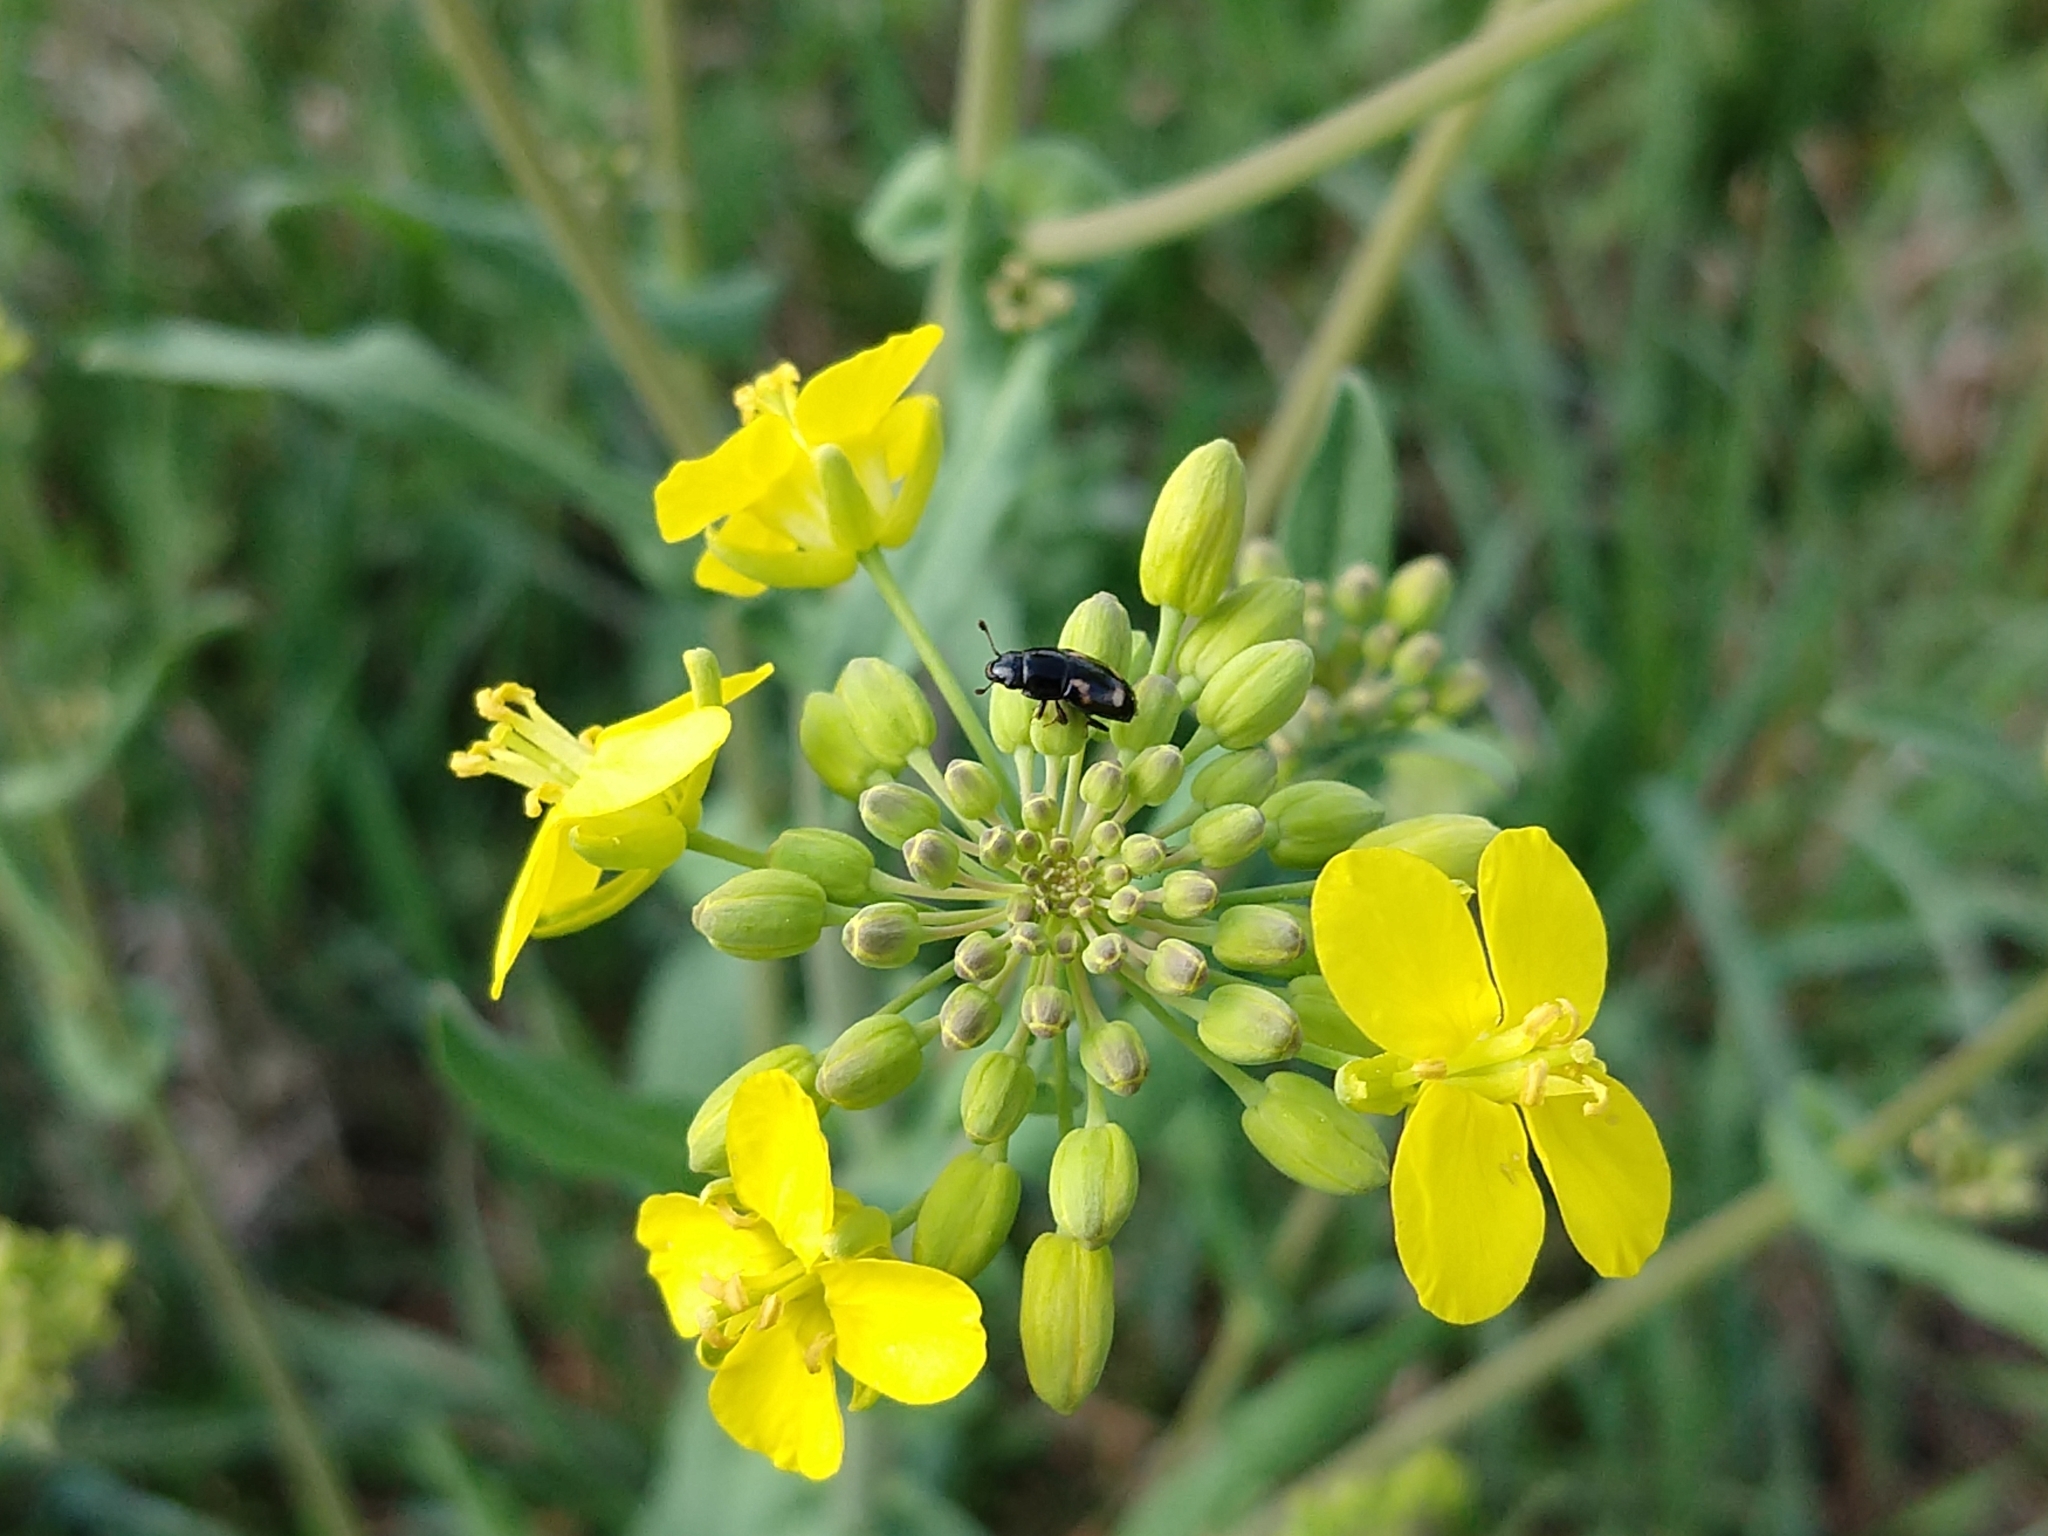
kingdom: Animalia
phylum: Arthropoda
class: Insecta
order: Coleoptera
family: Nitidulidae
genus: Glischrochilus
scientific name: Glischrochilus quadrisignatus
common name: Picnic beetle
